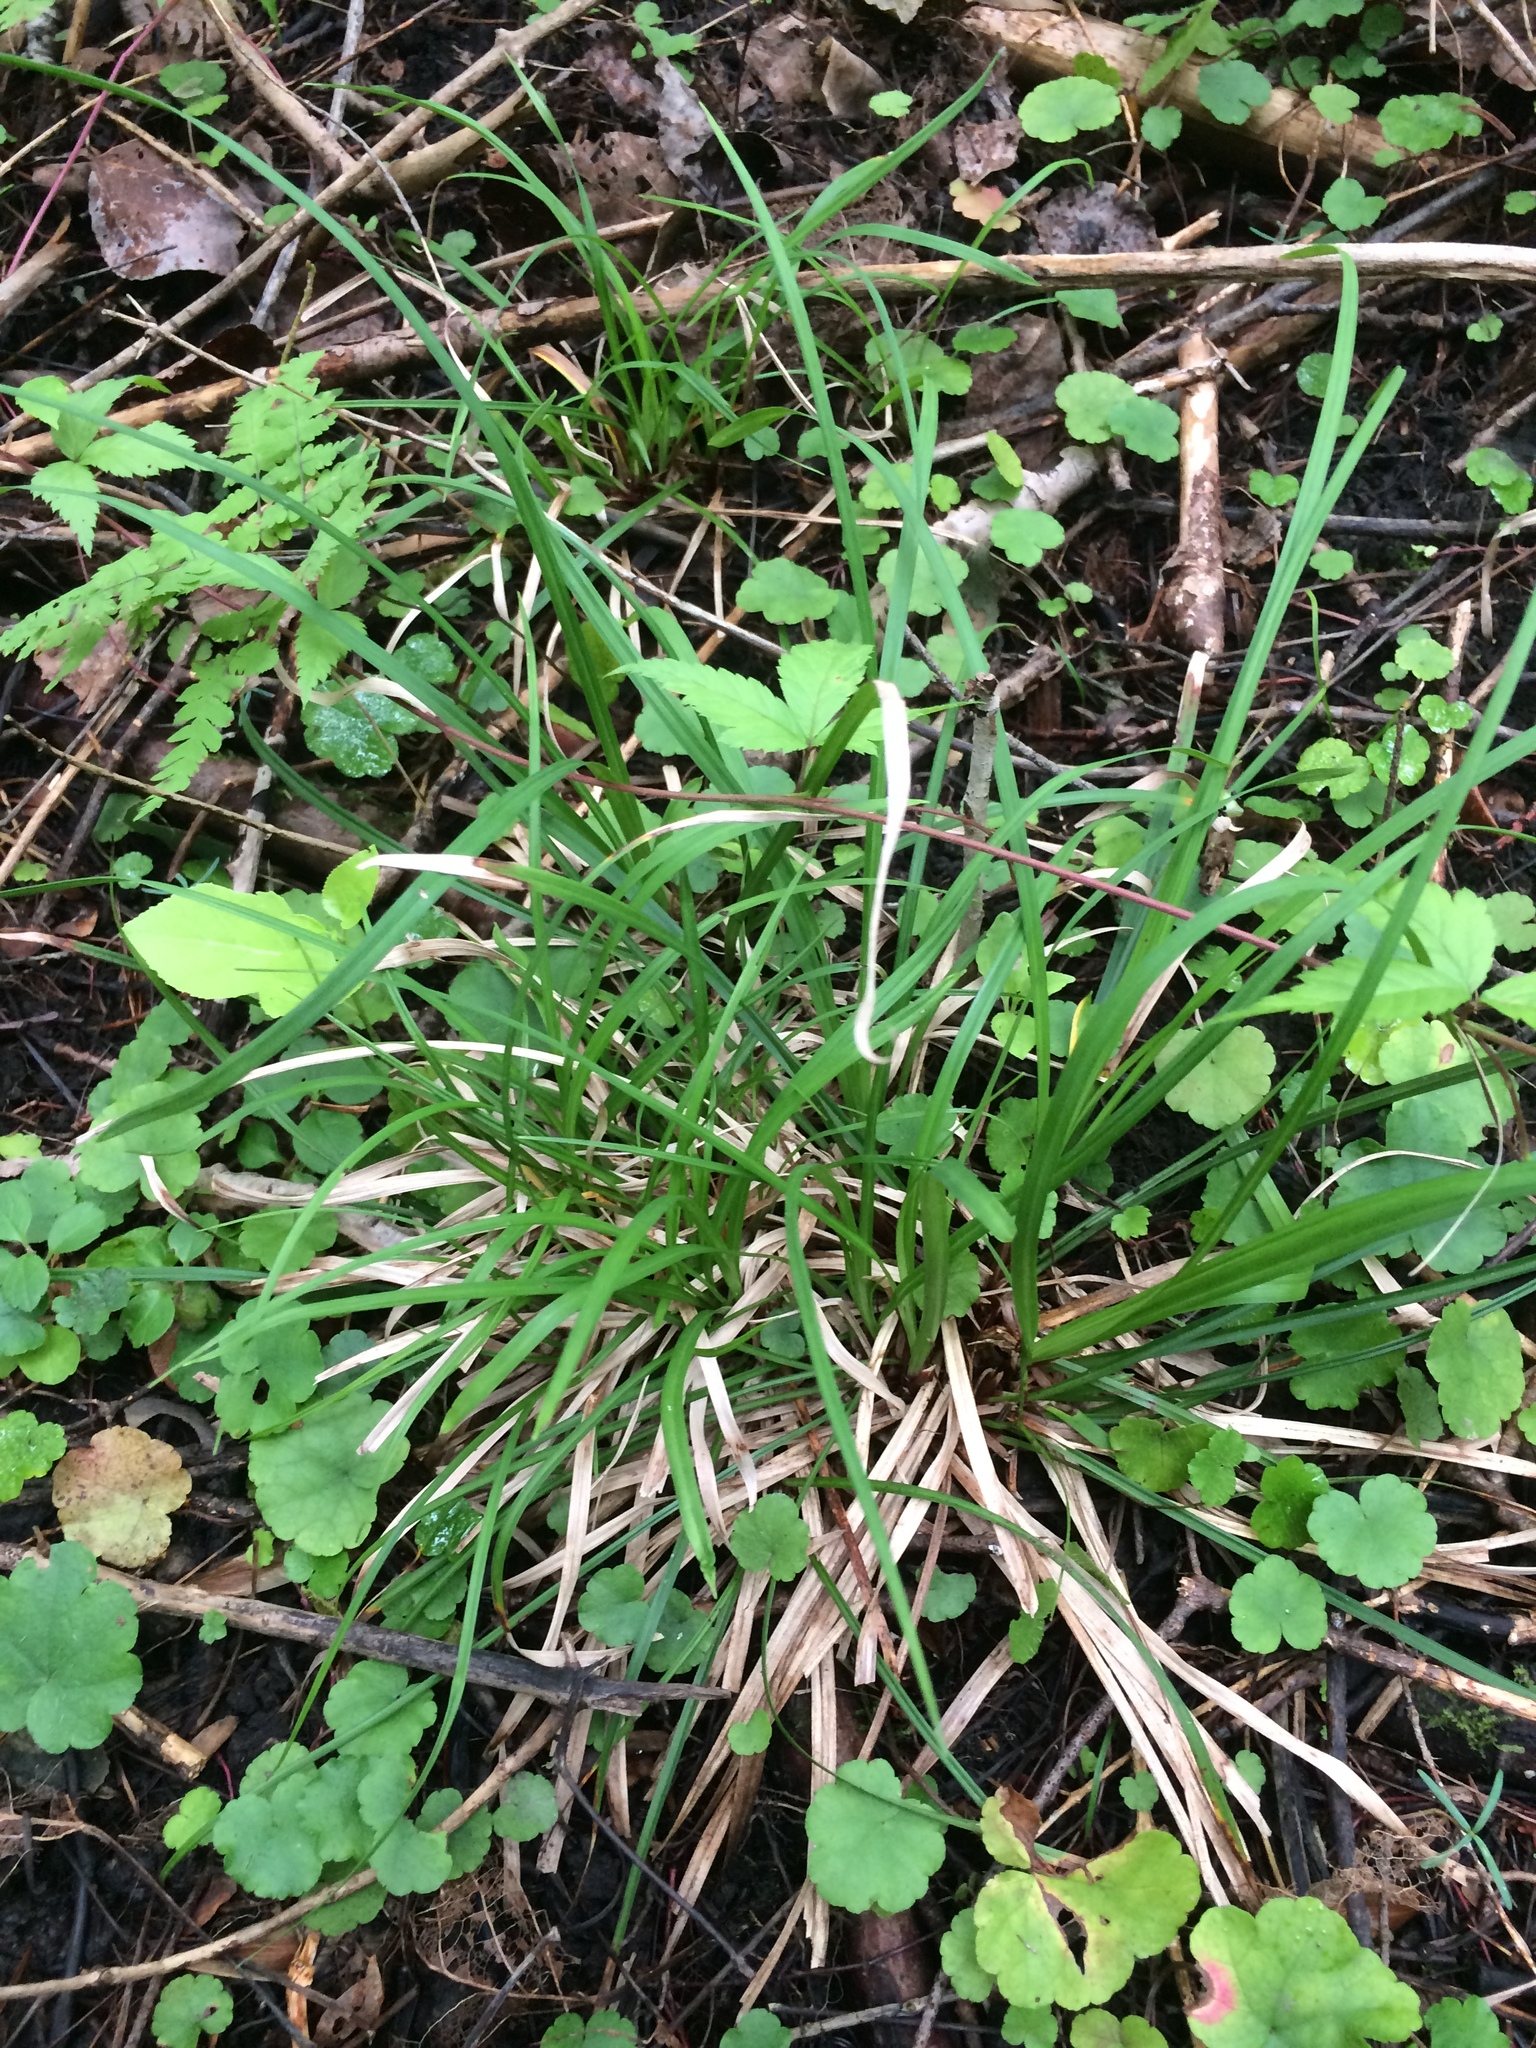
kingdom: Plantae
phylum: Tracheophyta
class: Liliopsida
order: Poales
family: Cyperaceae
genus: Carex
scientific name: Carex pedunculata
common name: Pedunculate sedge
